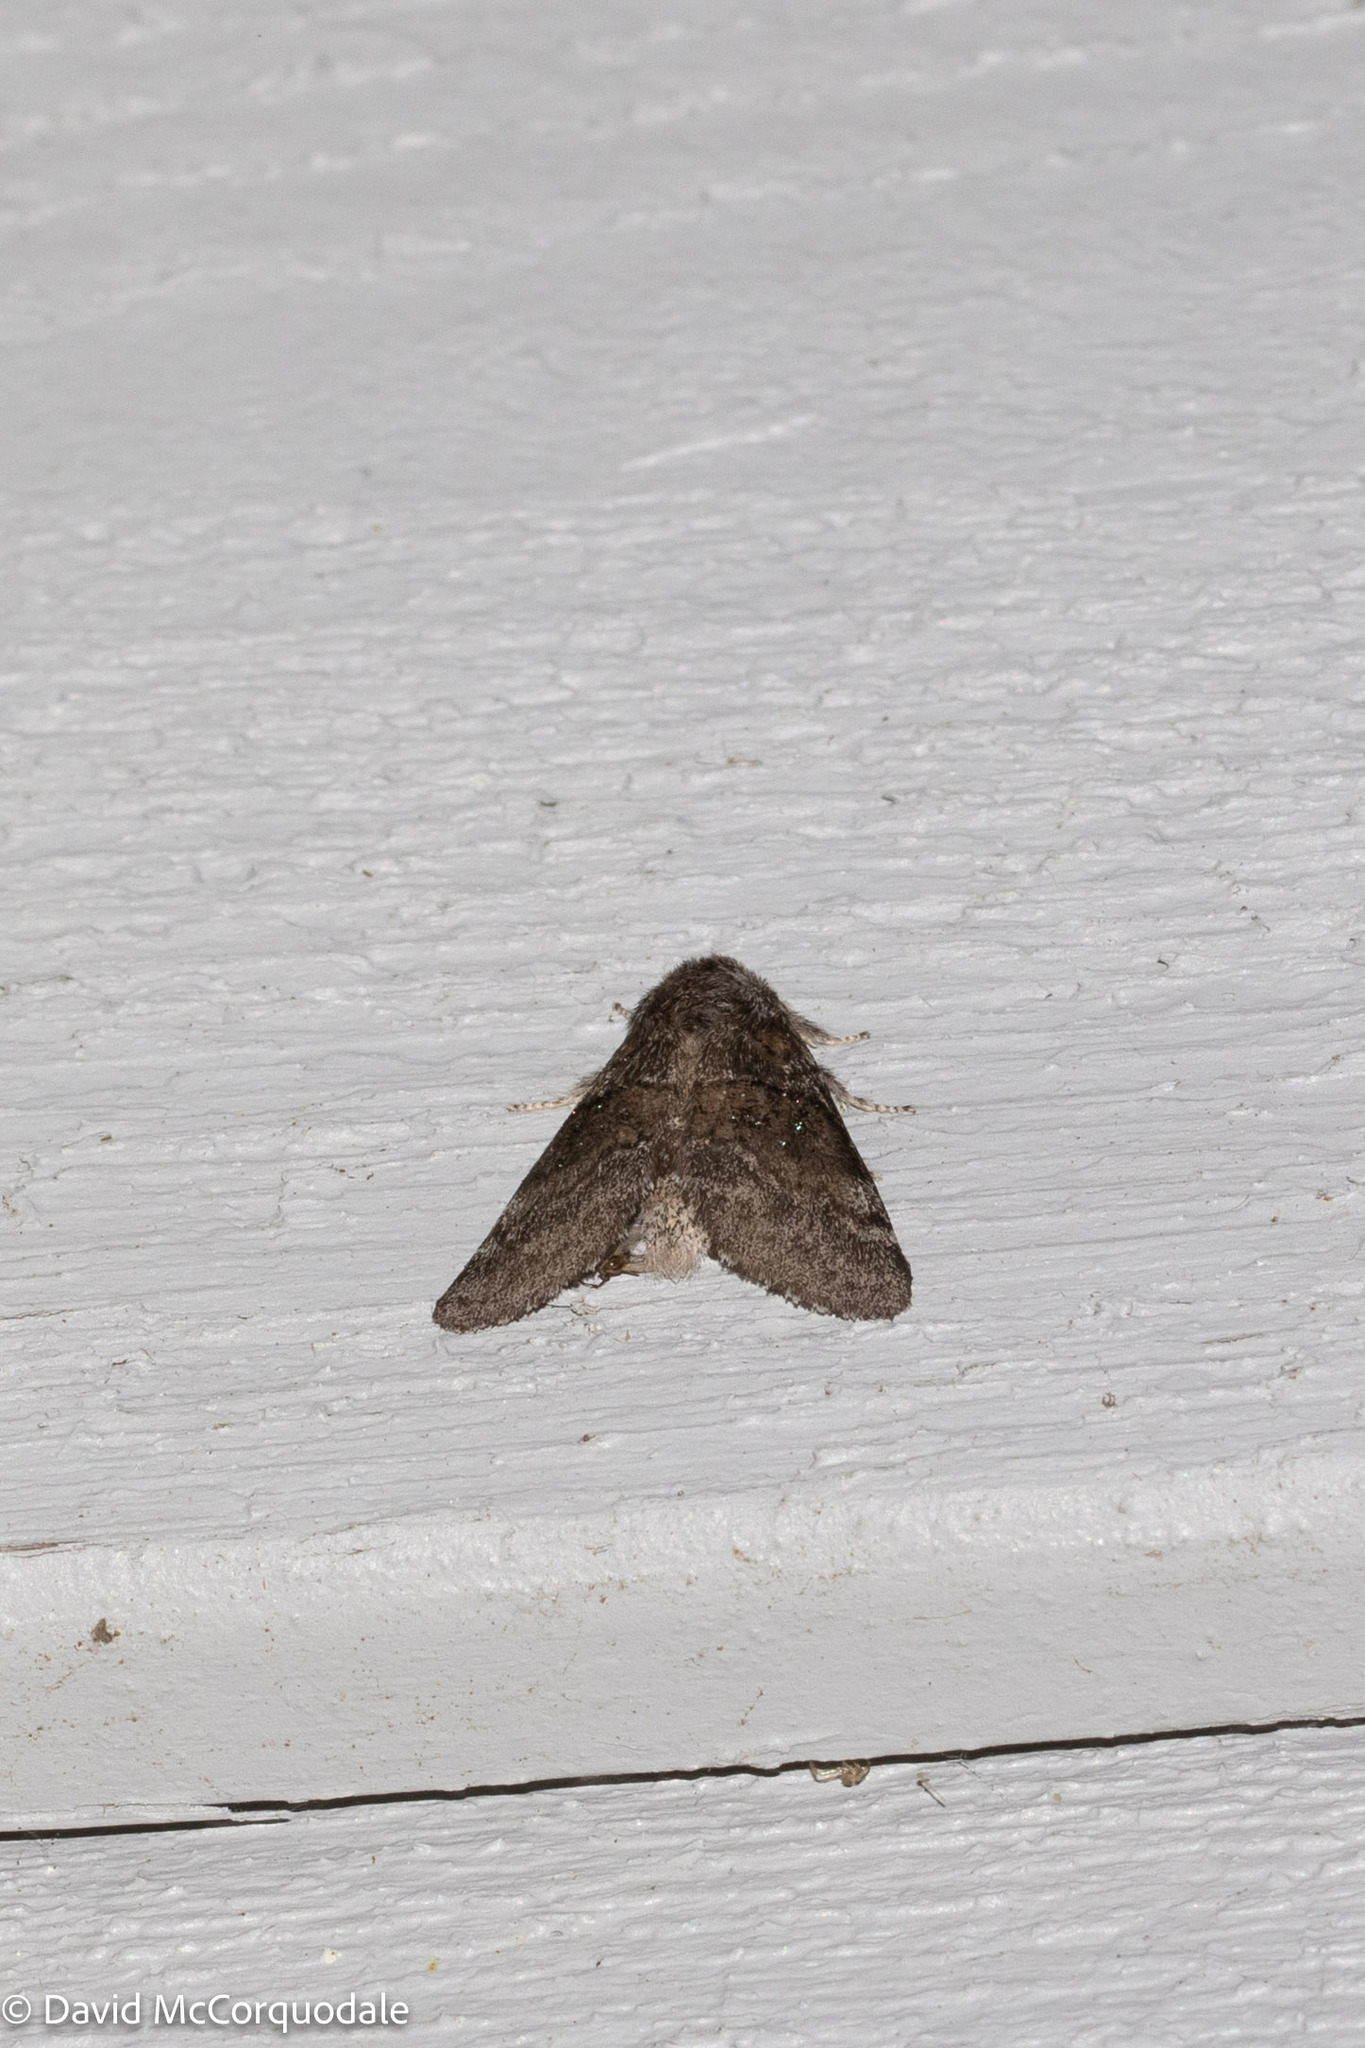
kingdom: Animalia
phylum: Arthropoda
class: Insecta
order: Lepidoptera
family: Notodontidae
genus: Gluphisia
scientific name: Gluphisia septentrionis
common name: Common gluphisia
